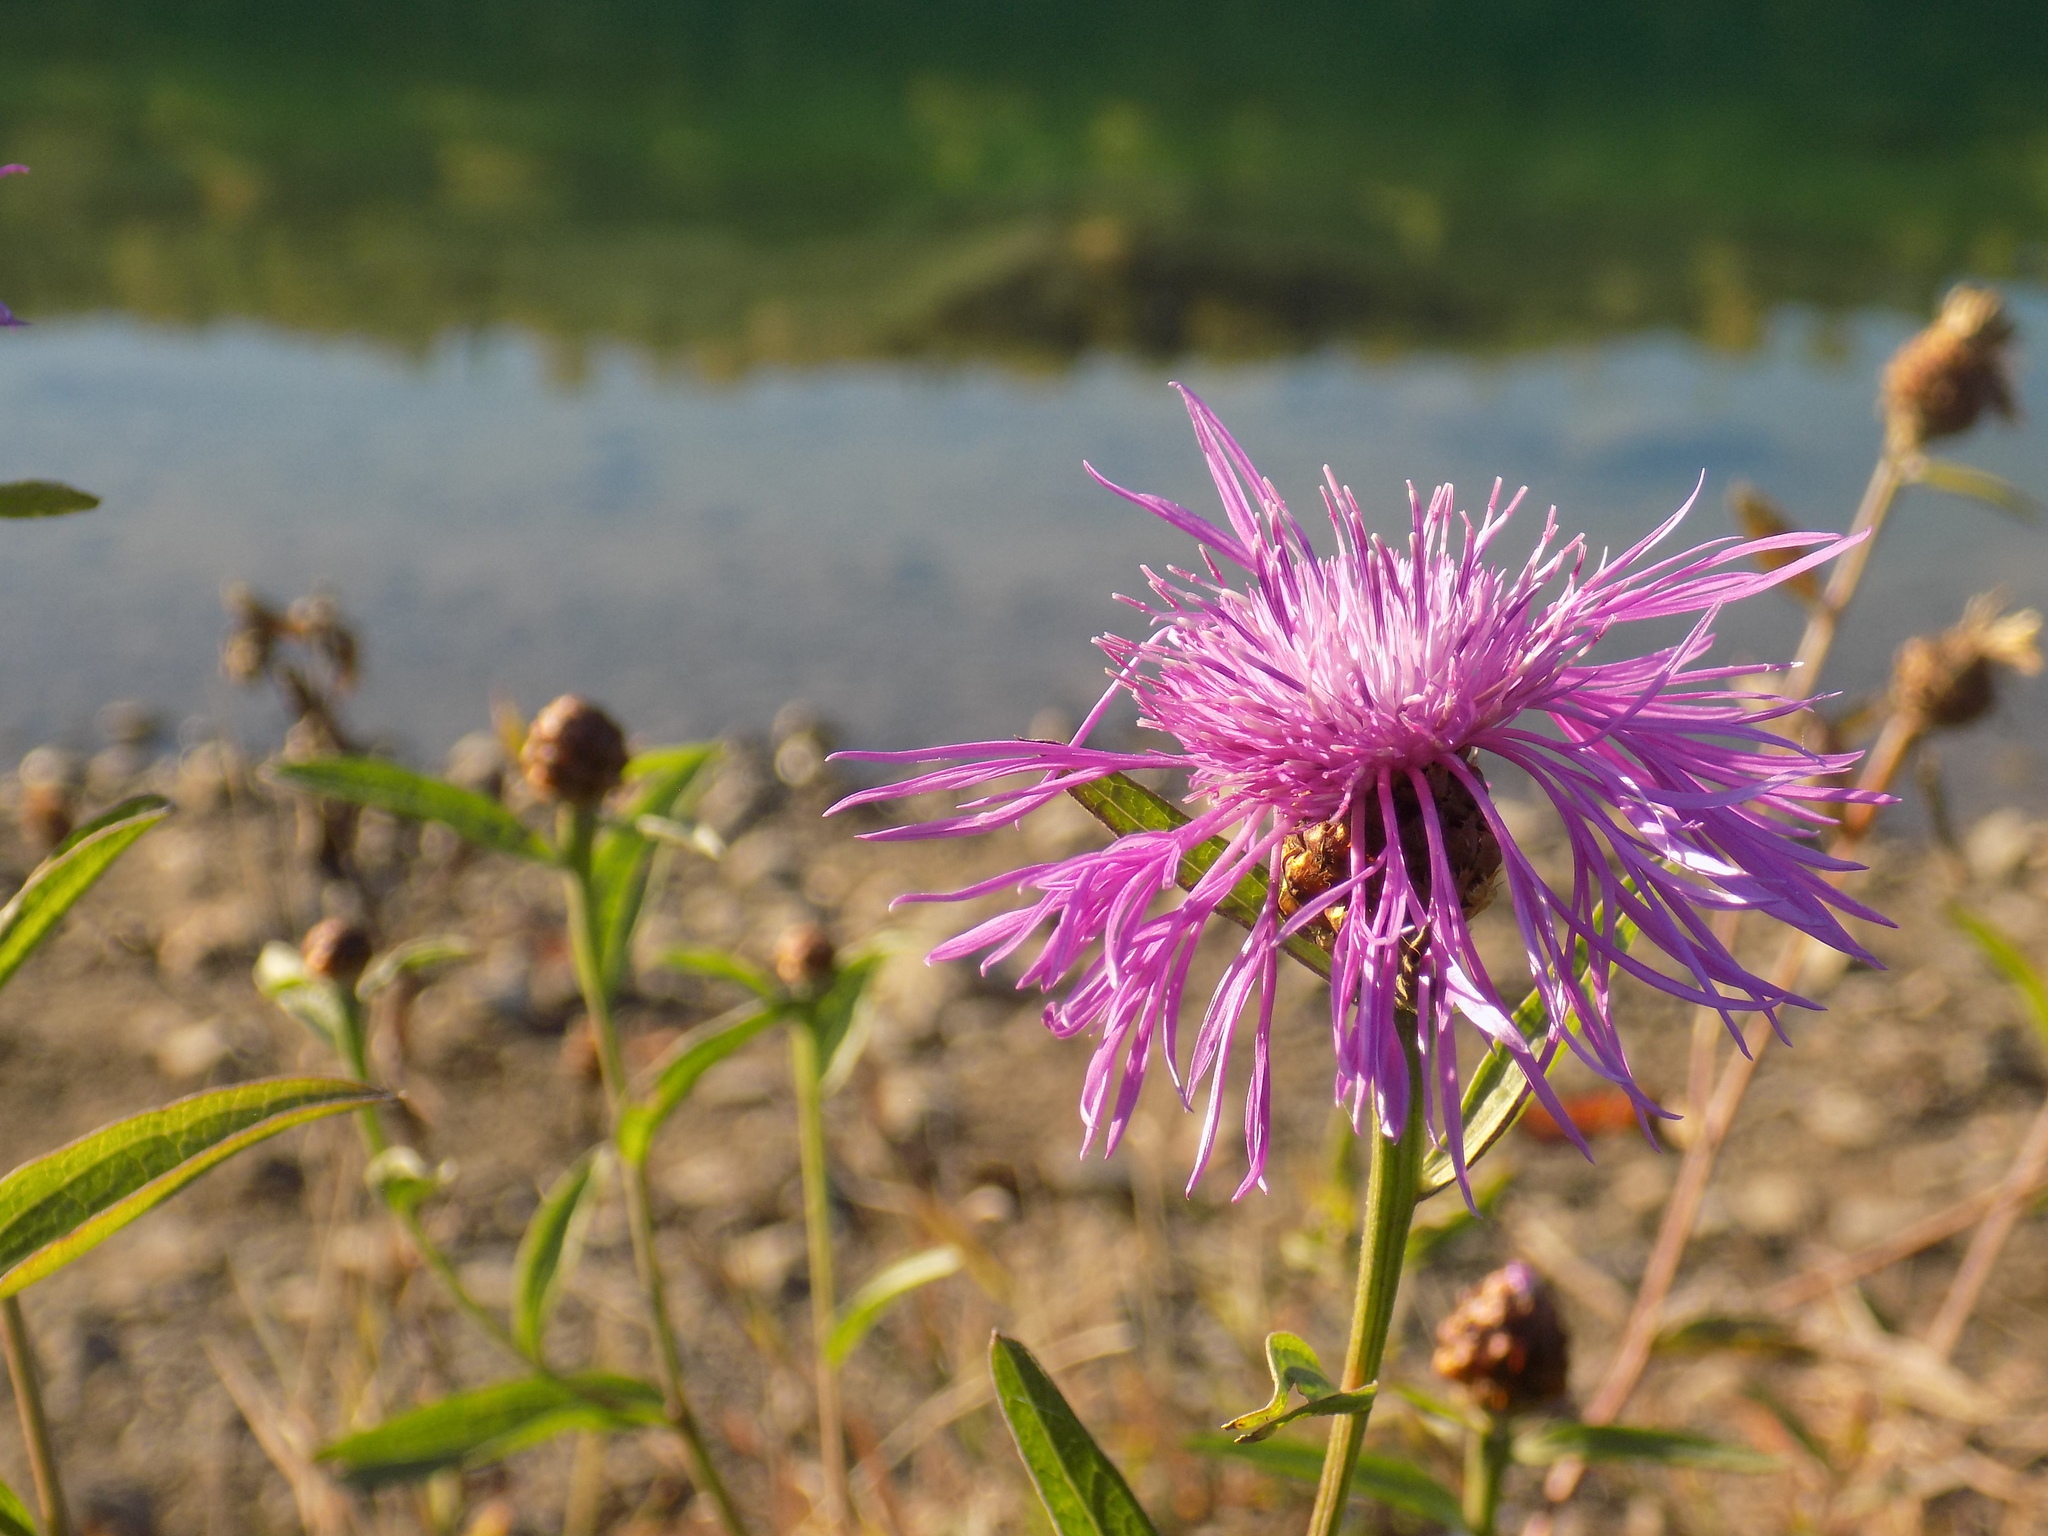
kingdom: Plantae
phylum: Tracheophyta
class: Magnoliopsida
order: Asterales
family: Asteraceae
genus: Centaurea
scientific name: Centaurea jacea
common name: Brown knapweed
